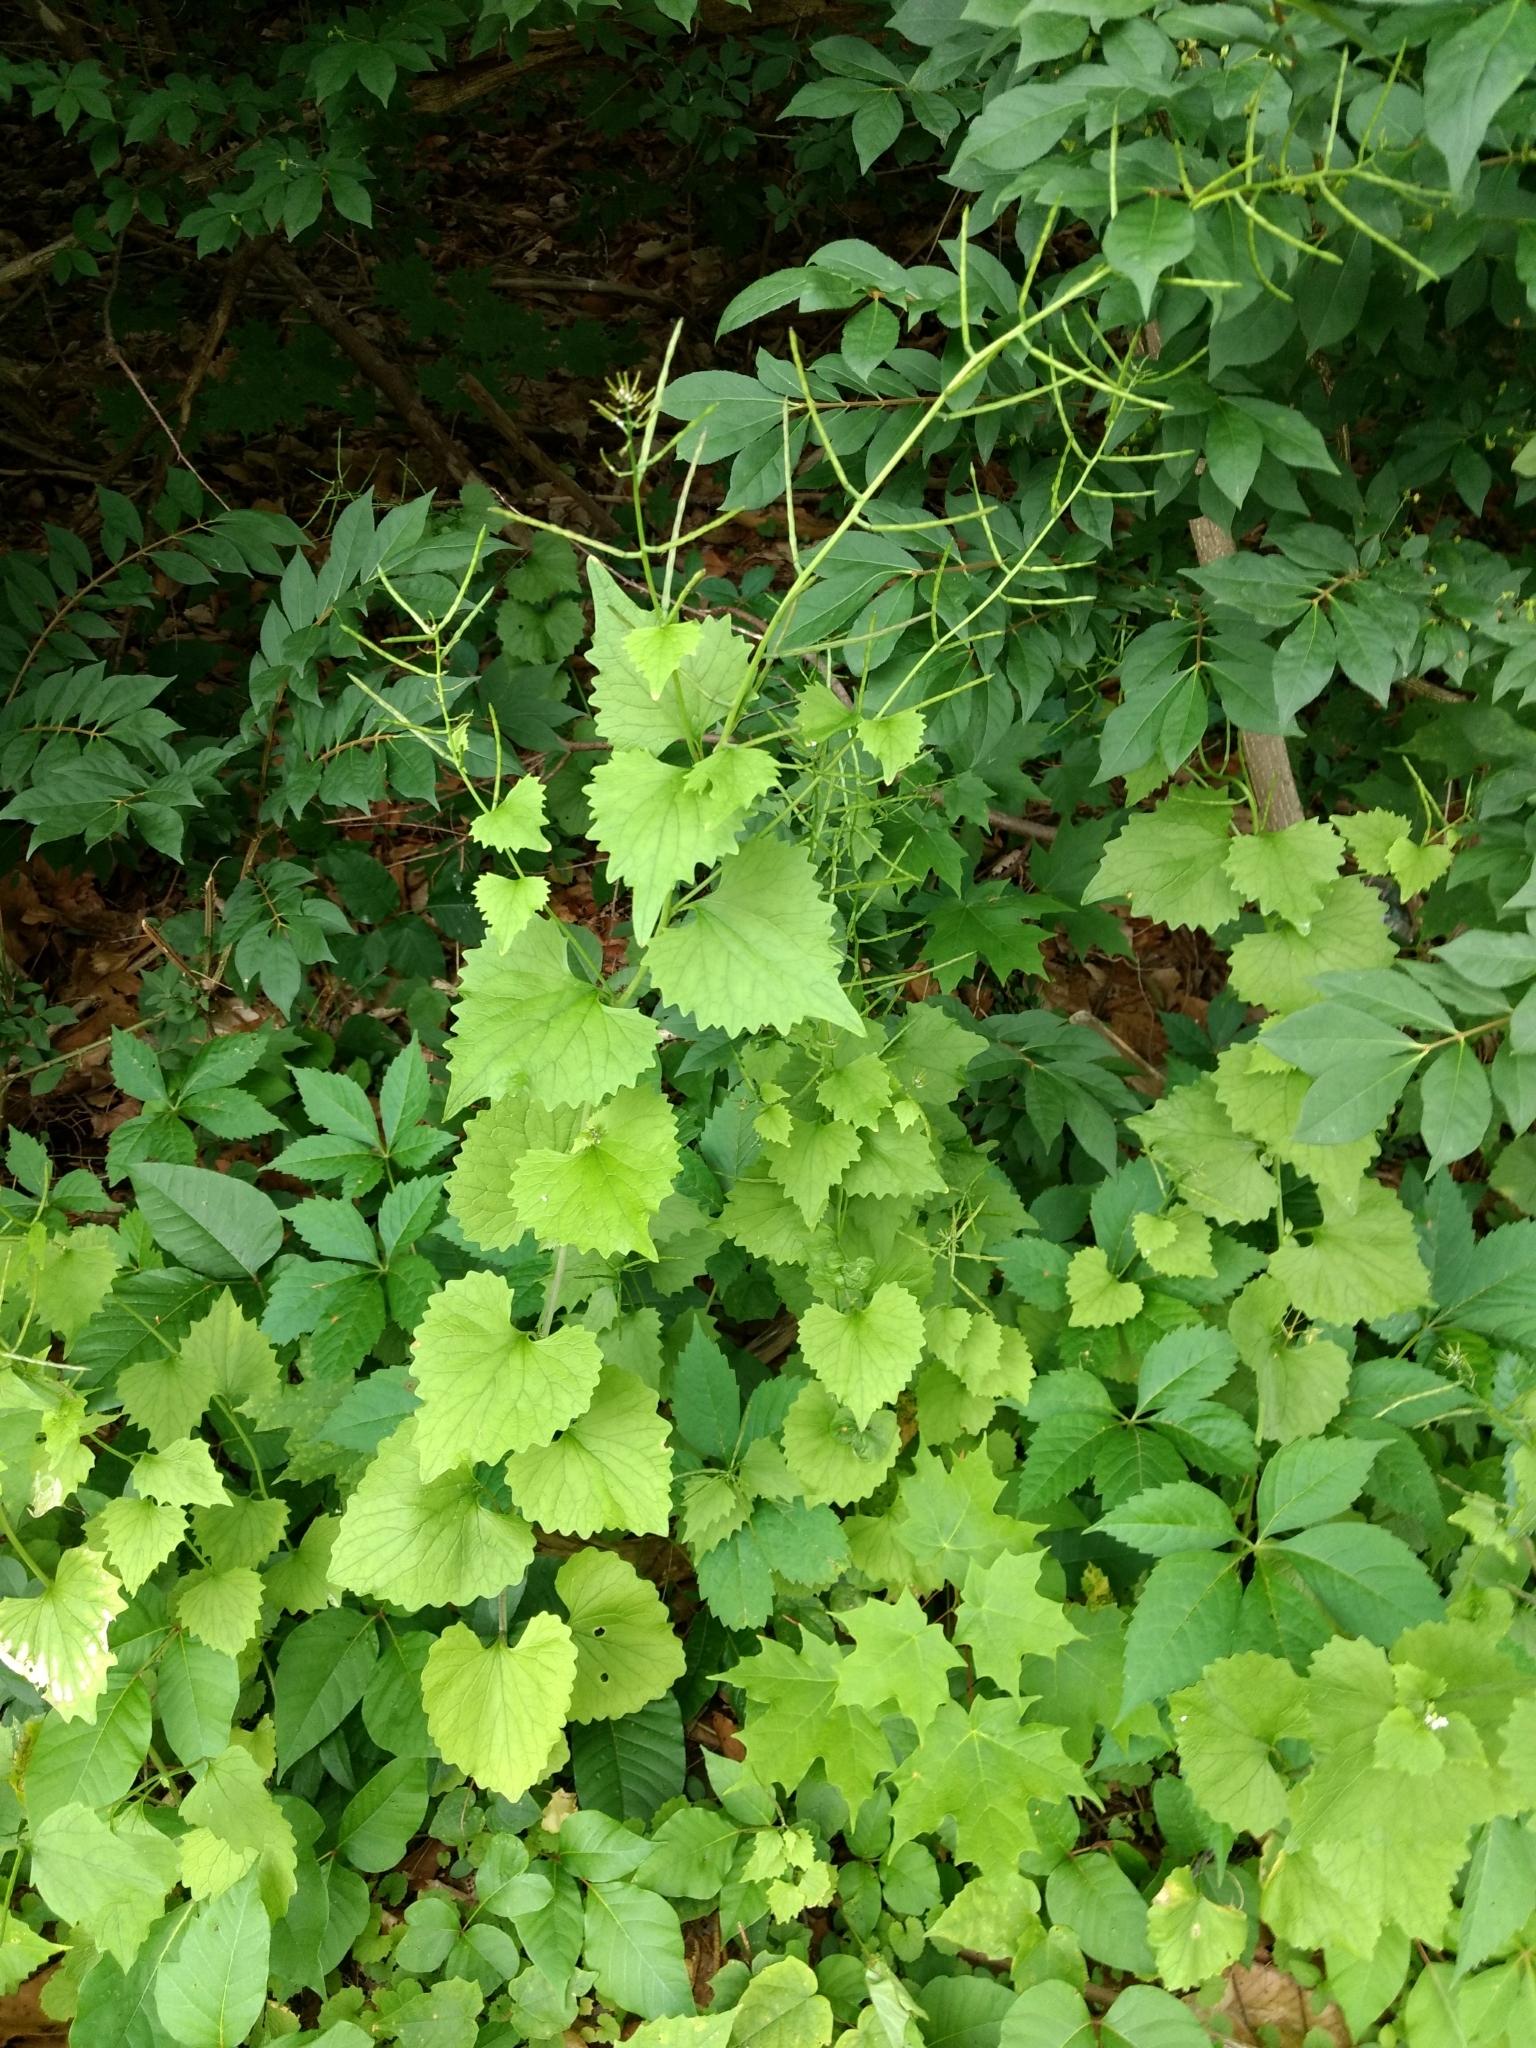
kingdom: Plantae
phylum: Tracheophyta
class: Magnoliopsida
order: Brassicales
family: Brassicaceae
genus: Alliaria
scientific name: Alliaria petiolata
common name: Garlic mustard
